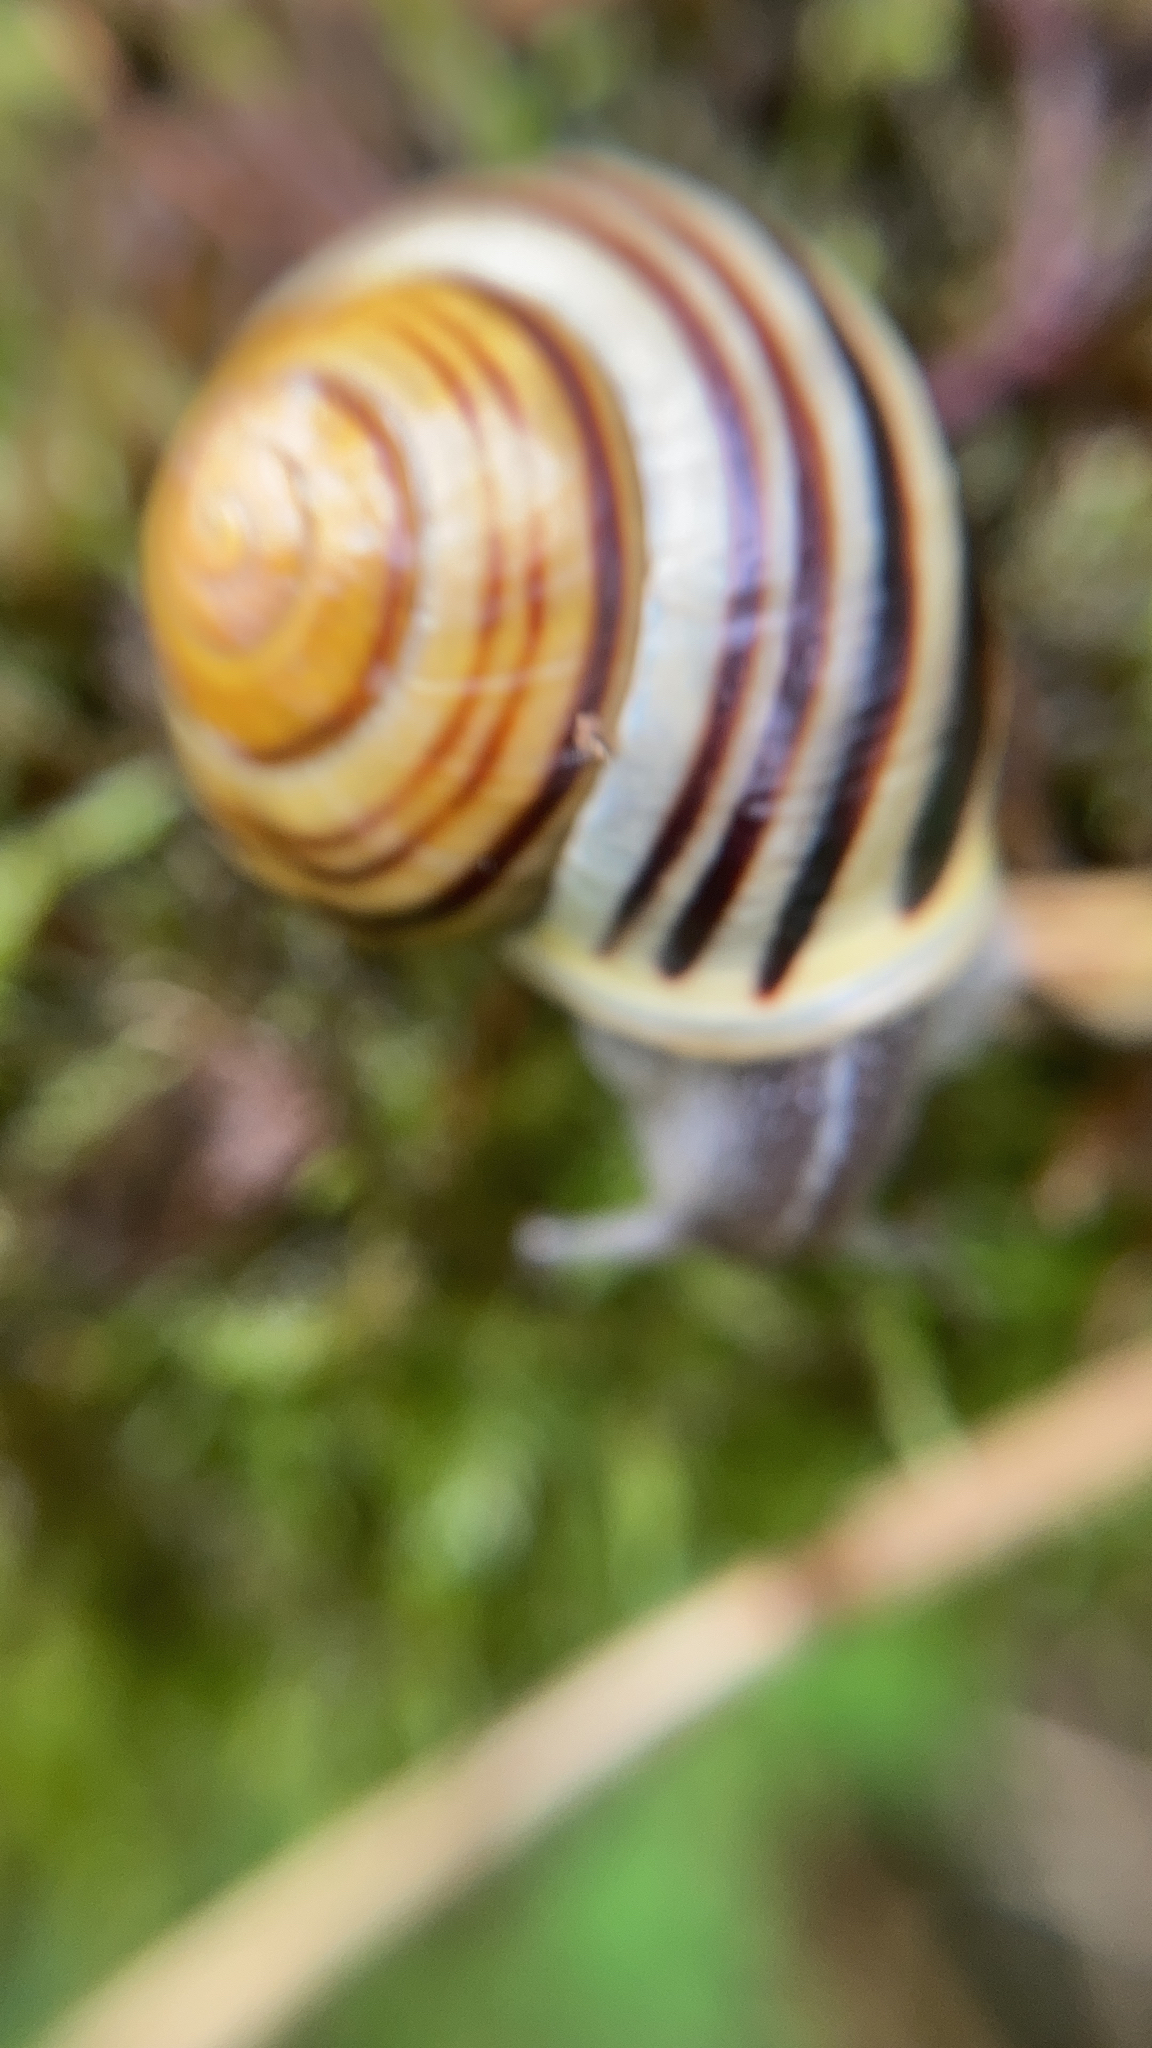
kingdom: Animalia
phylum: Mollusca
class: Gastropoda
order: Stylommatophora
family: Helicidae
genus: Cepaea
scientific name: Cepaea hortensis
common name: White-lip gardensnail
